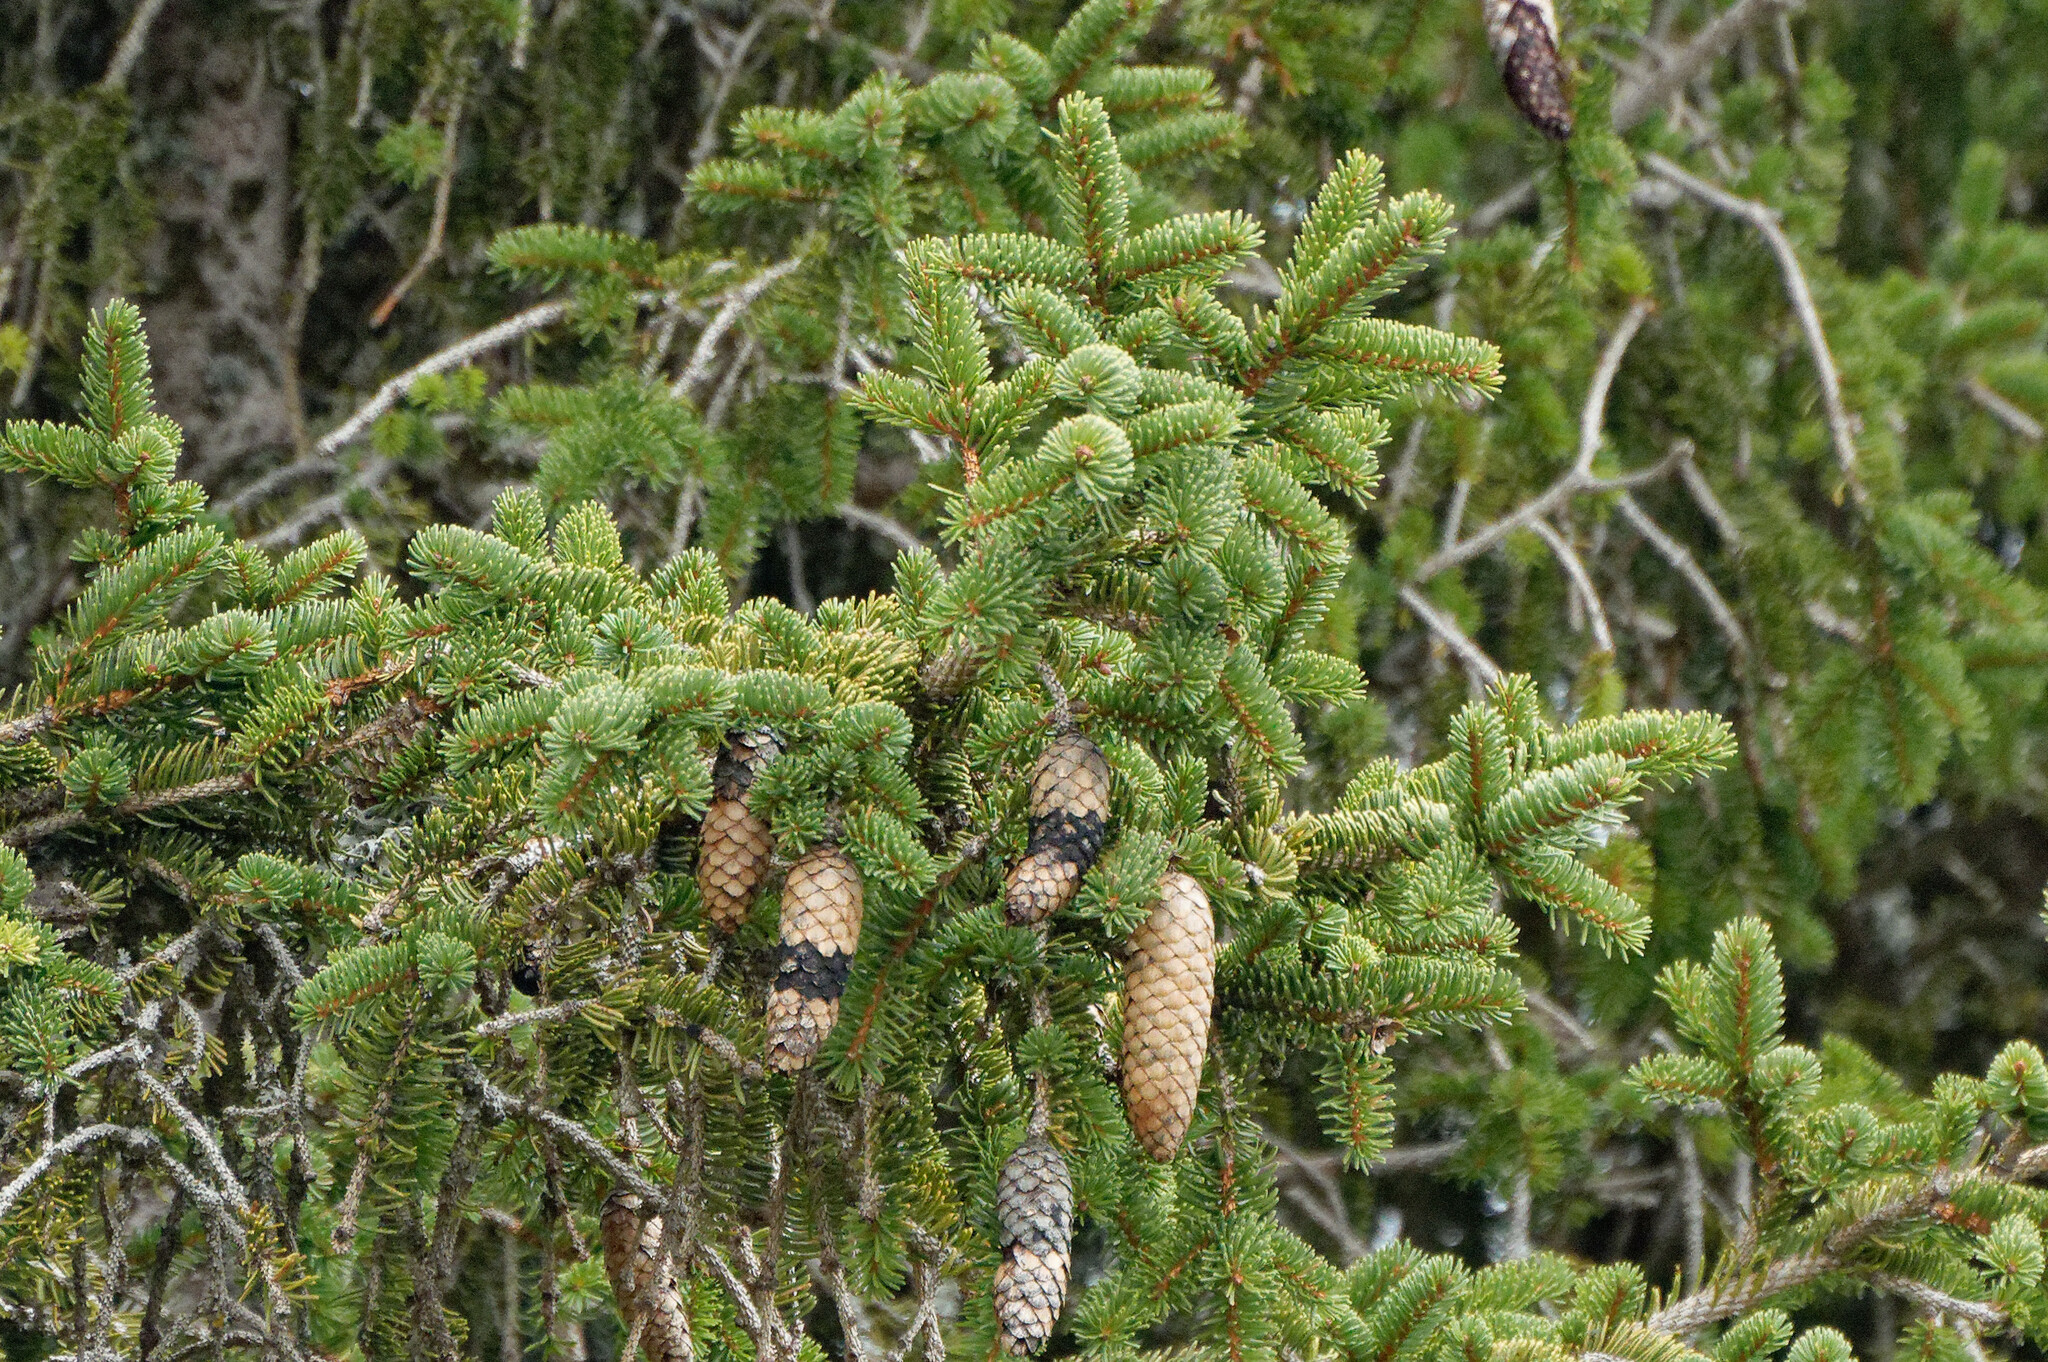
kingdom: Plantae
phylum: Tracheophyta
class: Pinopsida
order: Pinales
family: Pinaceae
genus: Picea
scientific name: Picea abies
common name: Norway spruce
